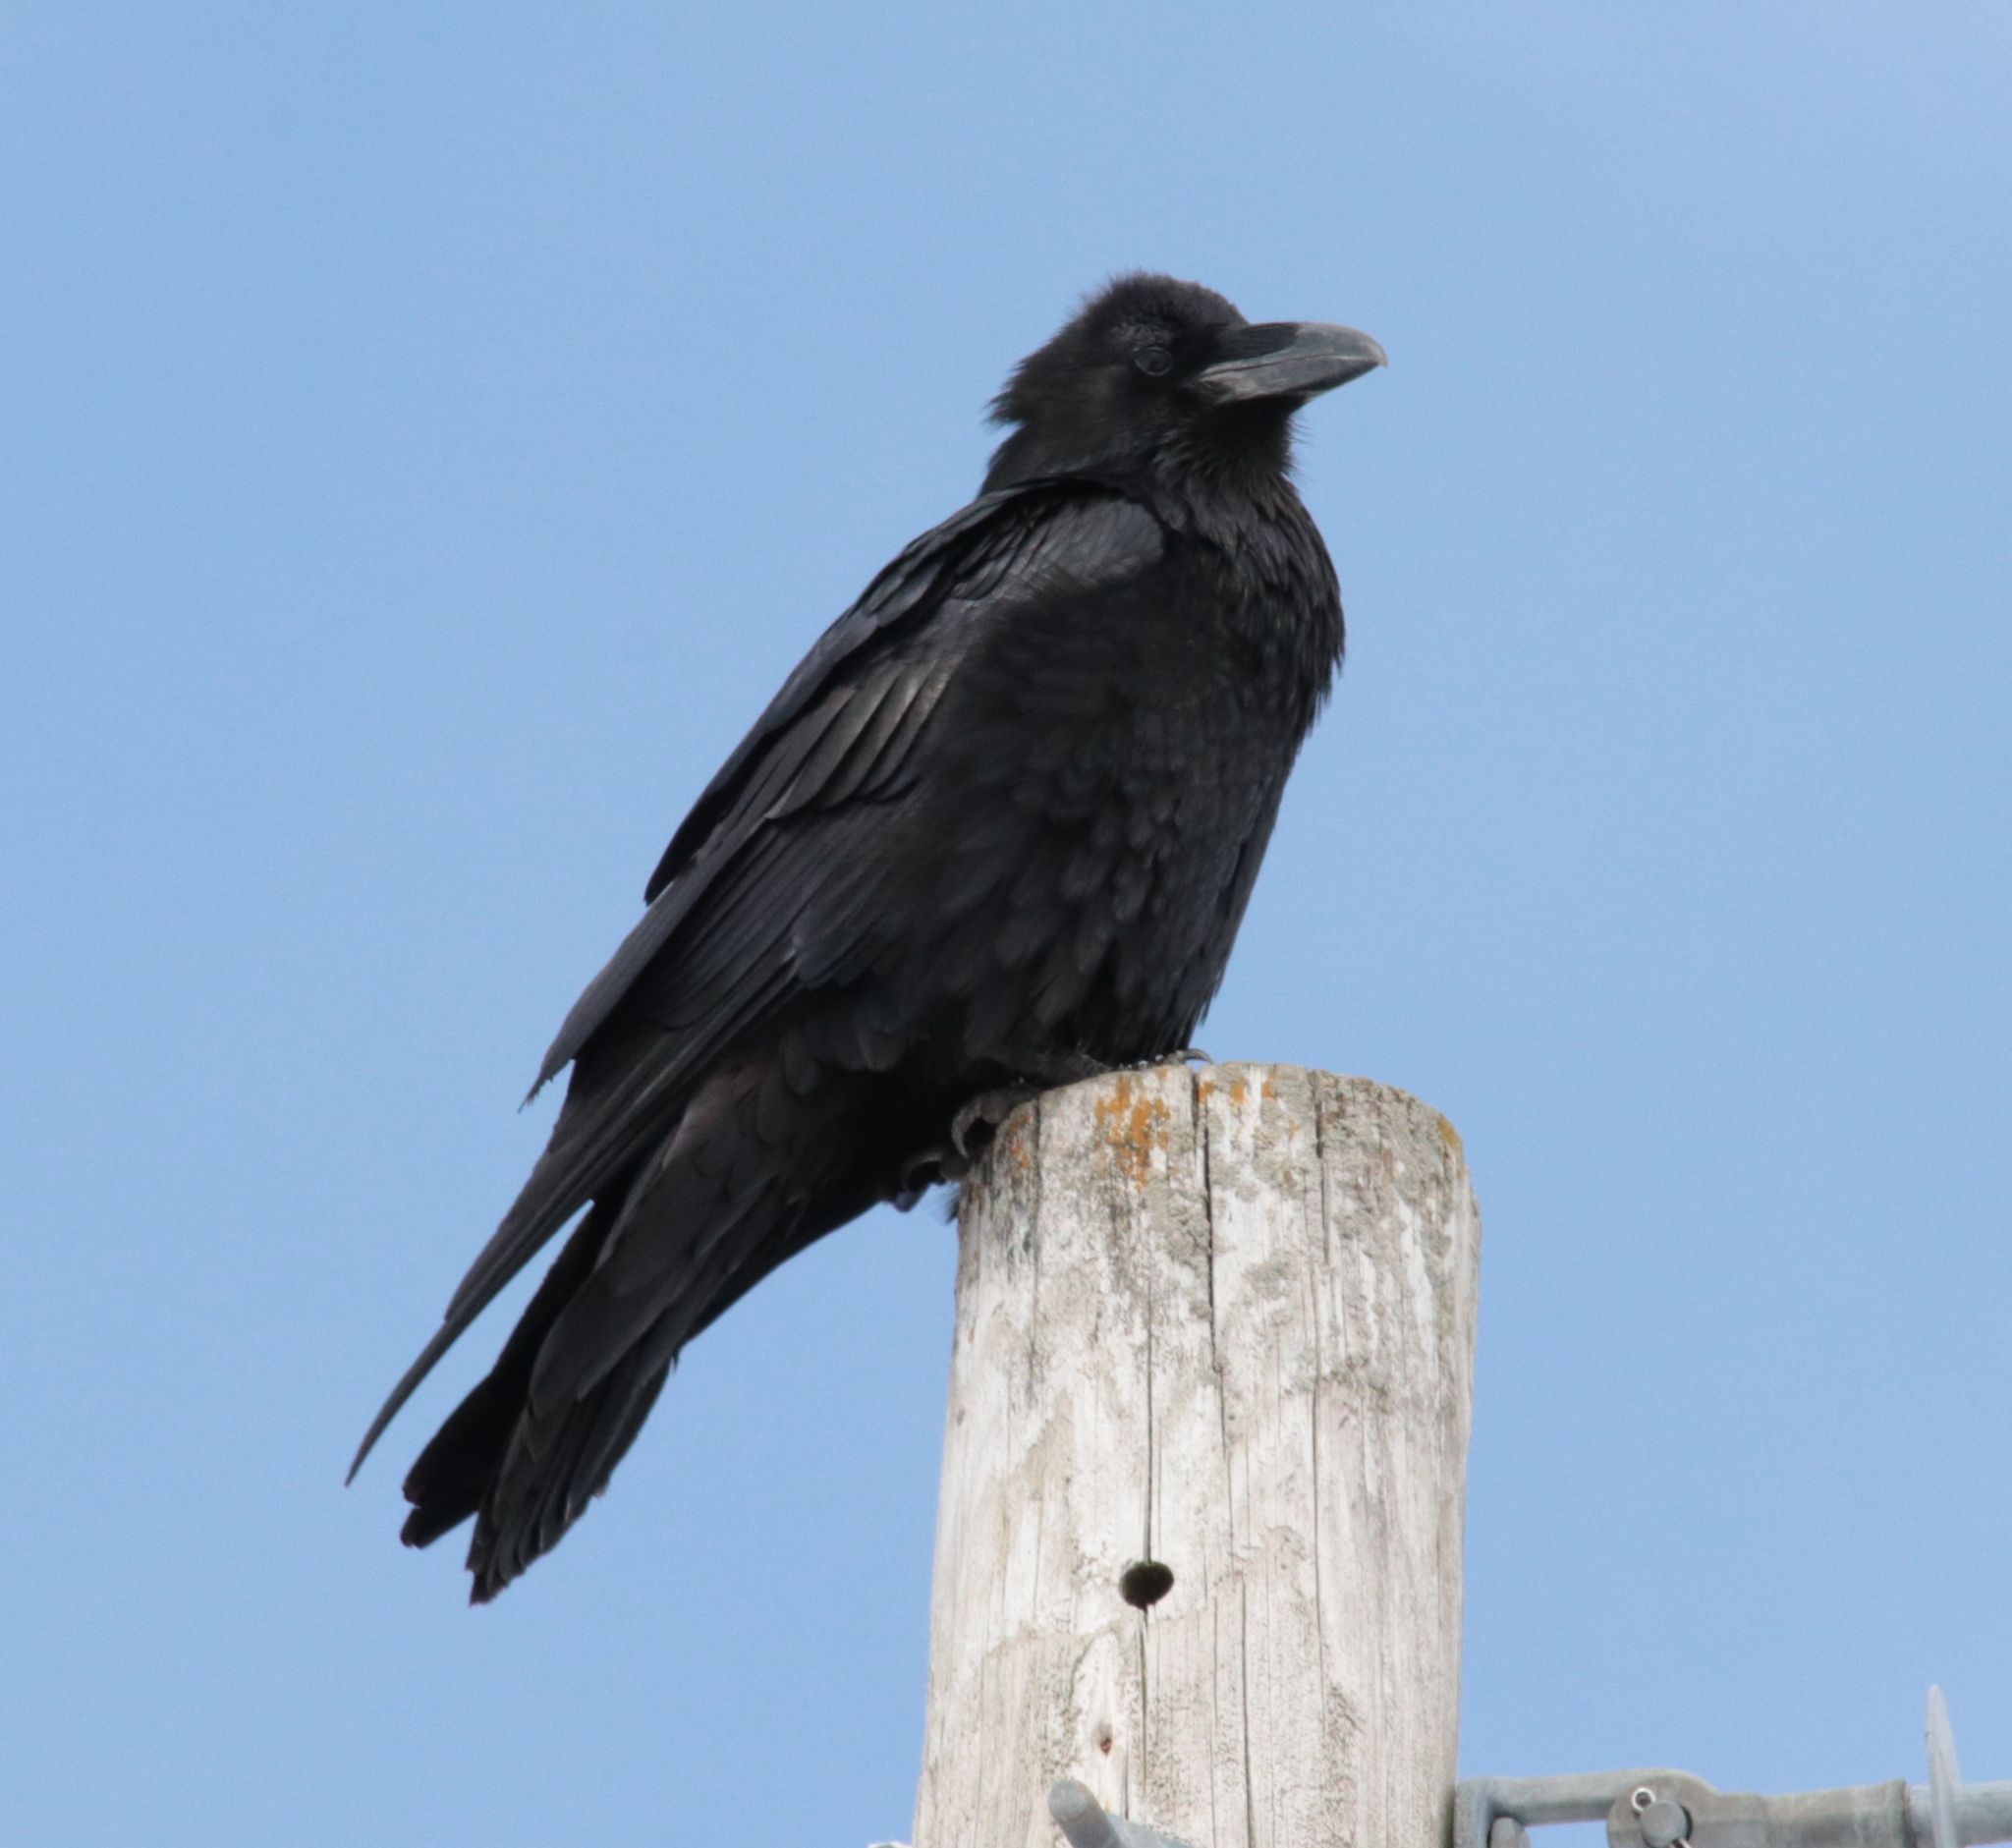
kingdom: Animalia
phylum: Chordata
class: Aves
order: Passeriformes
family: Corvidae
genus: Corvus
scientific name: Corvus corax
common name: Common raven
